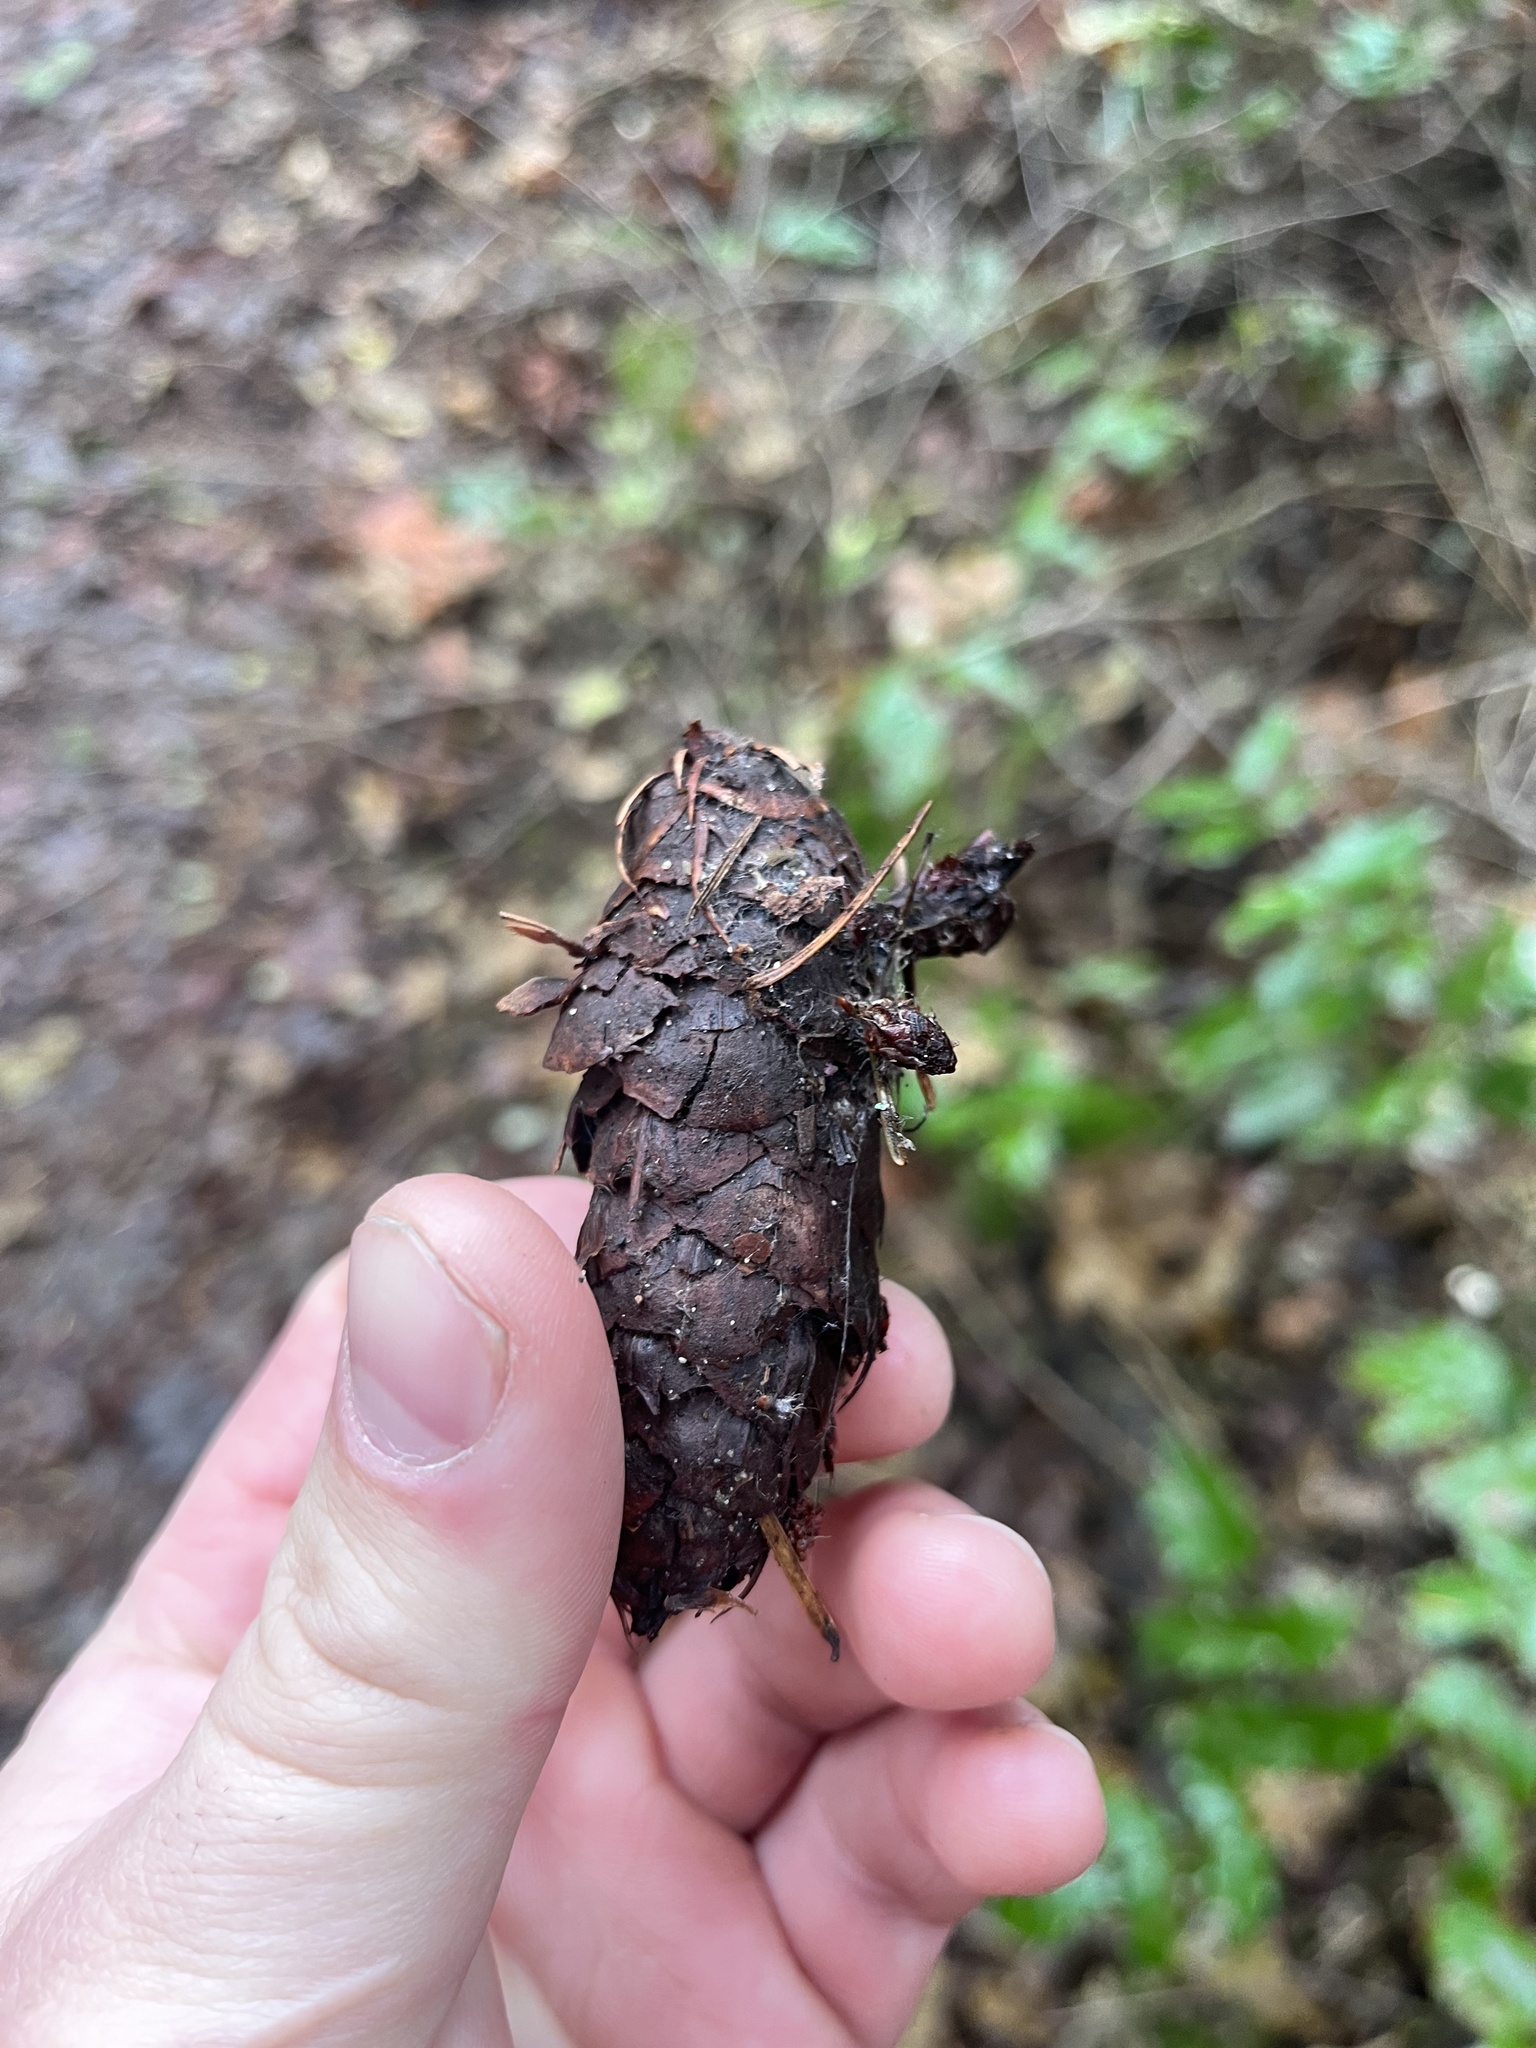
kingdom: Plantae
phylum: Tracheophyta
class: Pinopsida
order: Pinales
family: Pinaceae
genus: Pseudotsuga
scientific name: Pseudotsuga menziesii
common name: Douglas fir
